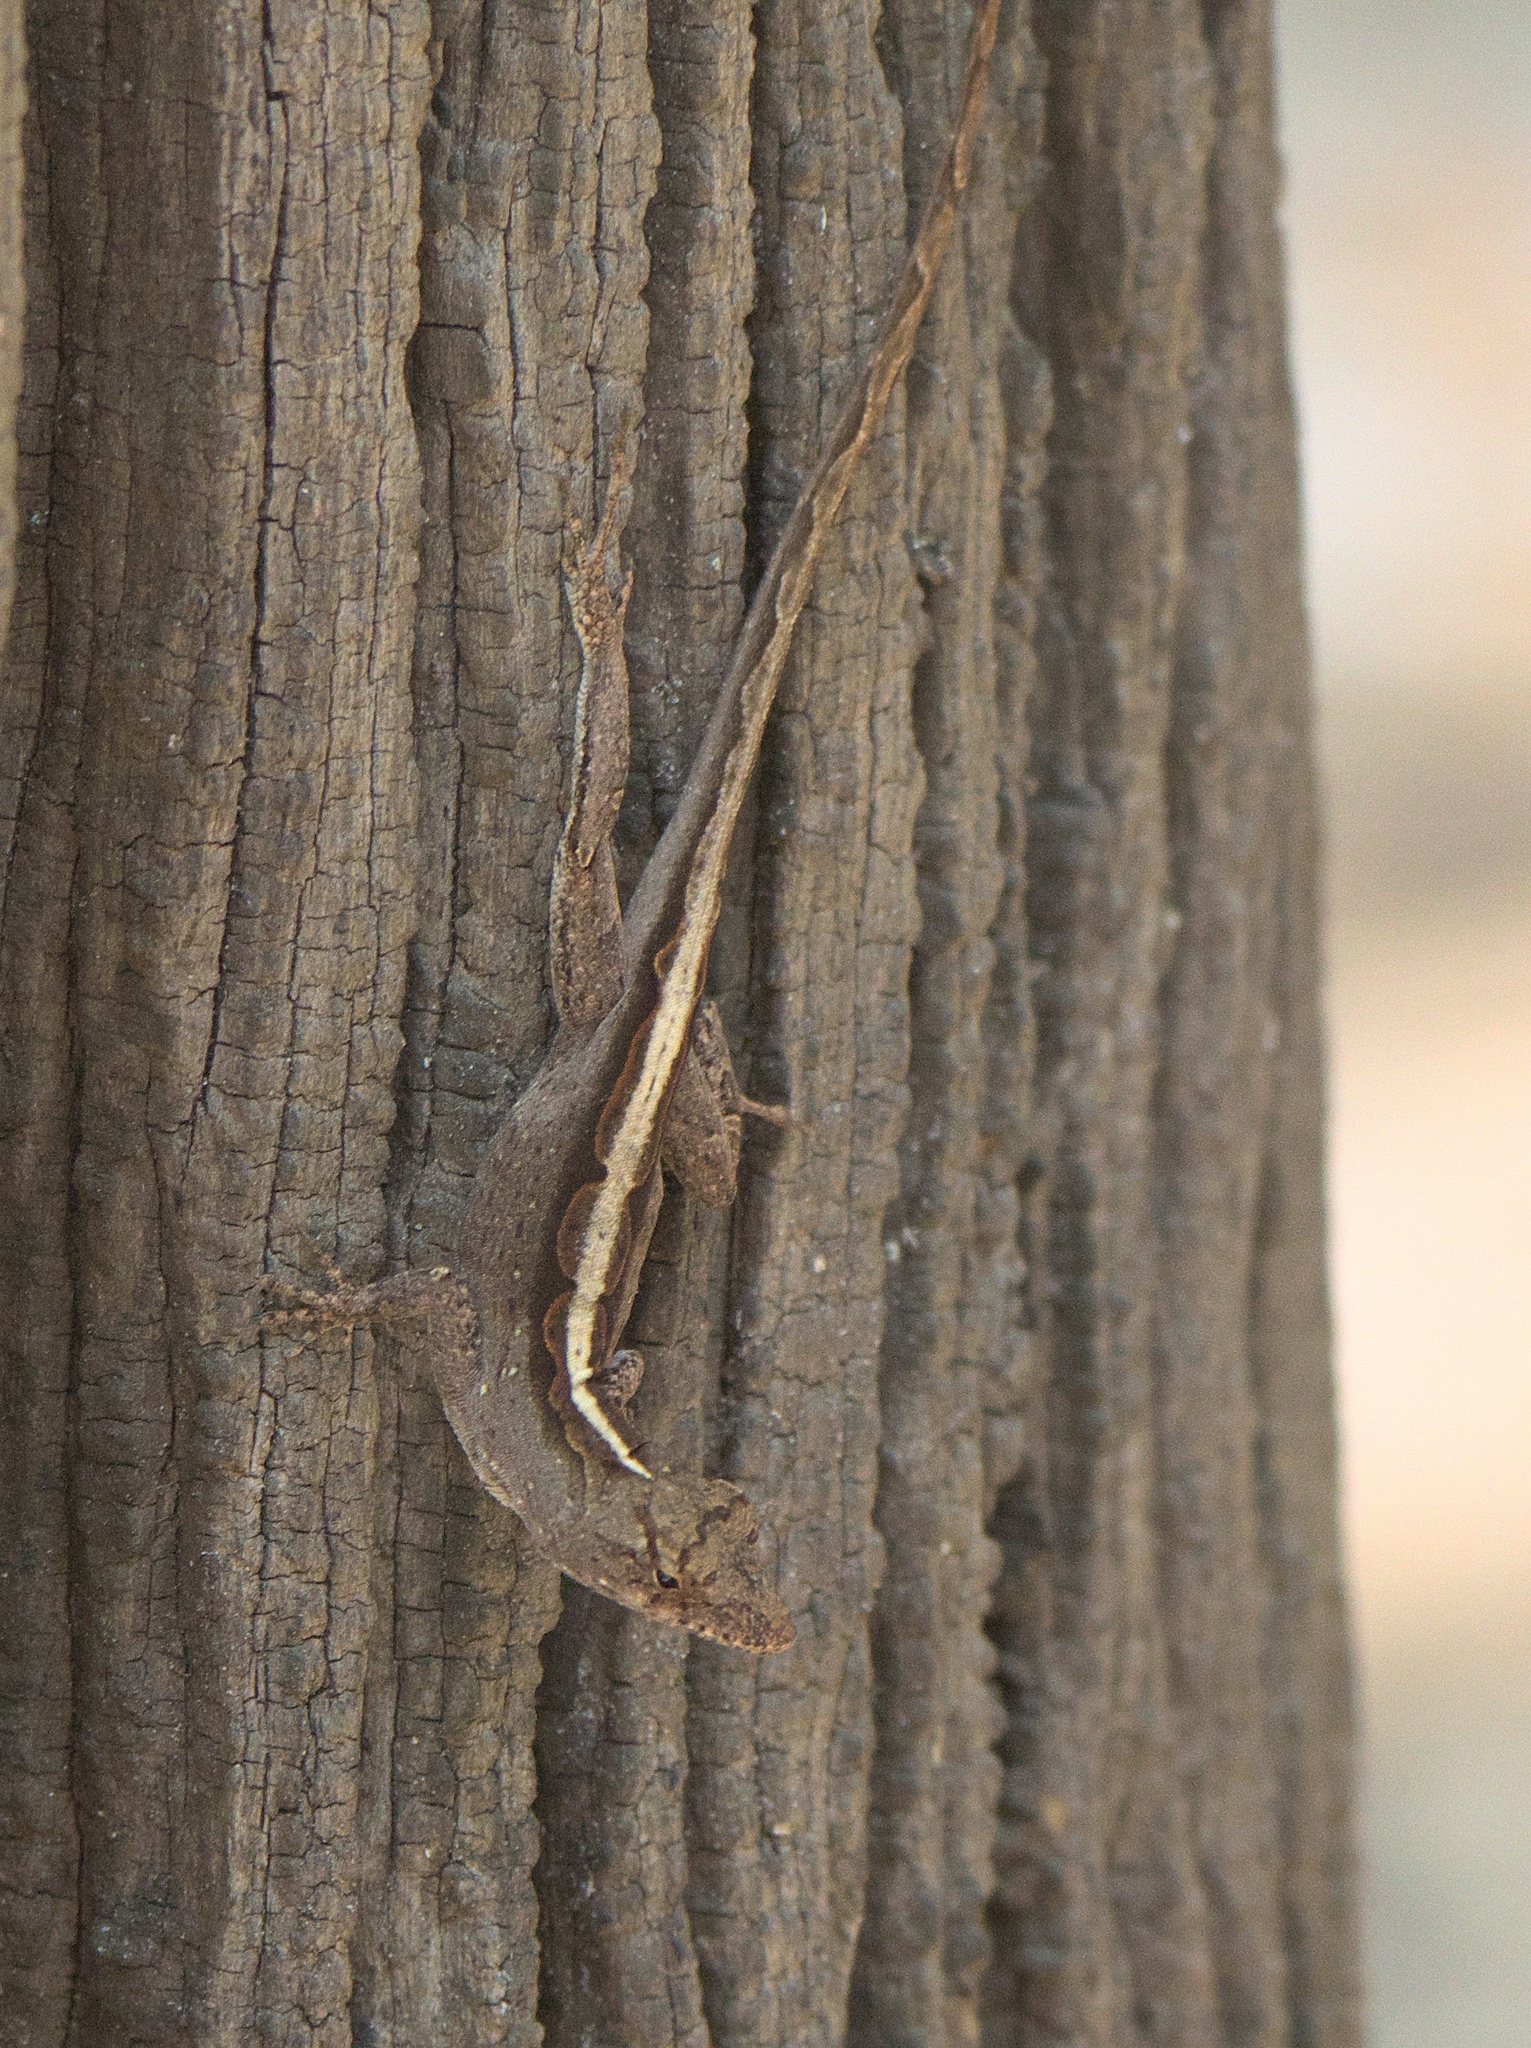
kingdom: Animalia
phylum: Chordata
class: Squamata
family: Dactyloidae
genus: Anolis
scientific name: Anolis sagrei
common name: Brown anole
